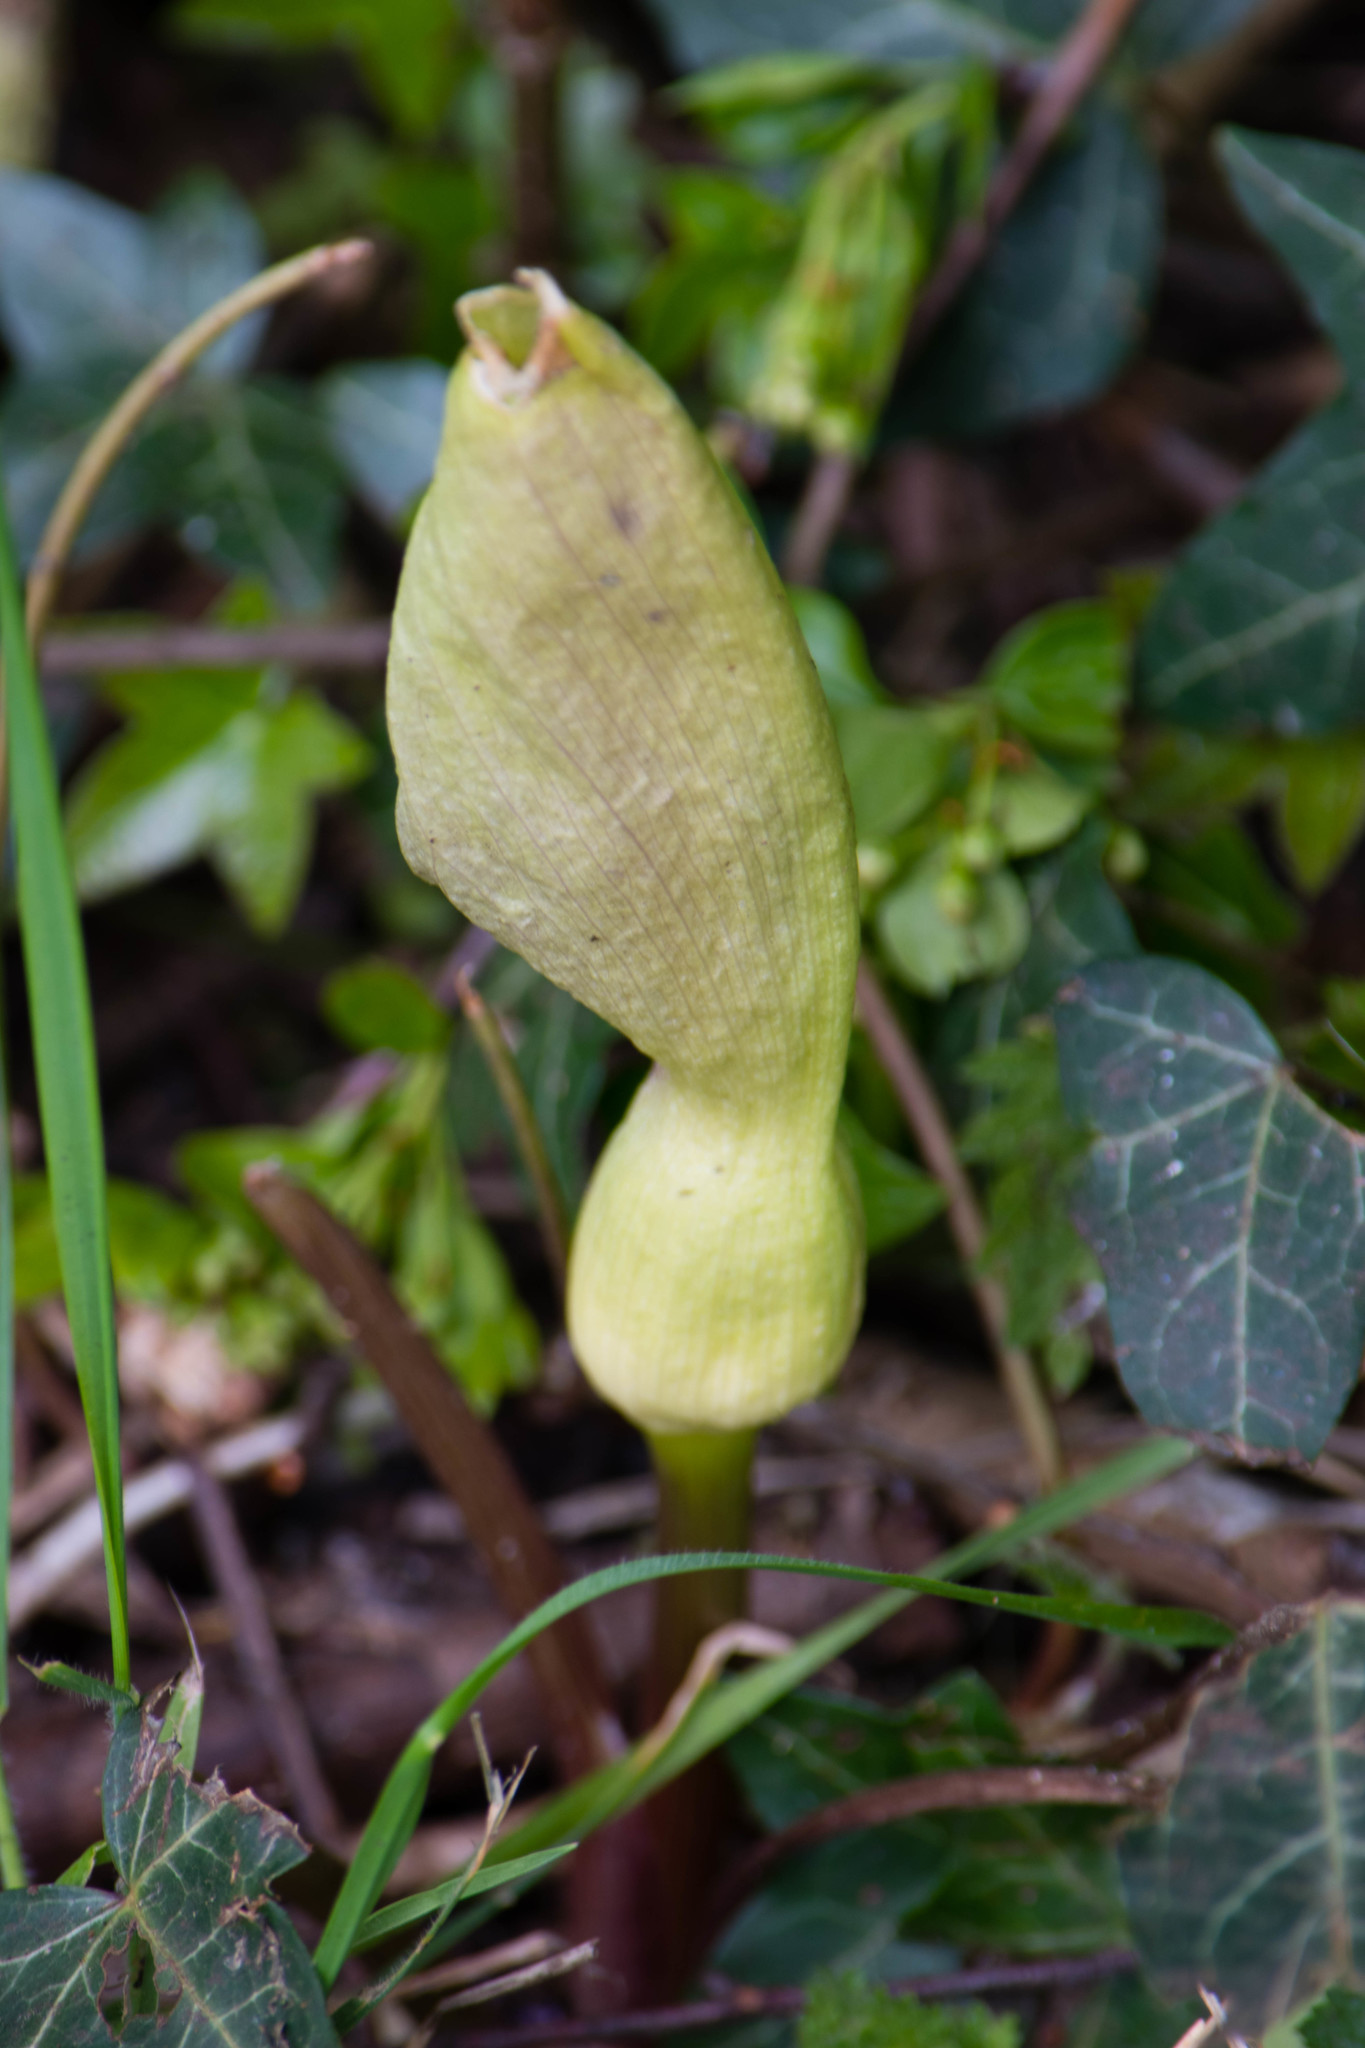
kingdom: Plantae
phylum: Tracheophyta
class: Liliopsida
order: Alismatales
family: Araceae
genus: Arum
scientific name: Arum maculatum
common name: Lords-and-ladies
